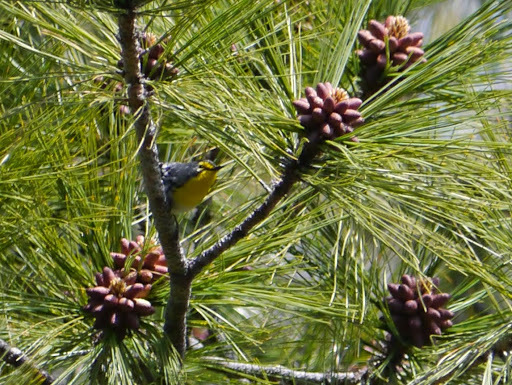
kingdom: Animalia
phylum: Chordata
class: Aves
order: Passeriformes
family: Parulidae
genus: Setophaga
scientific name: Setophaga graciae
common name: Grace's warbler
